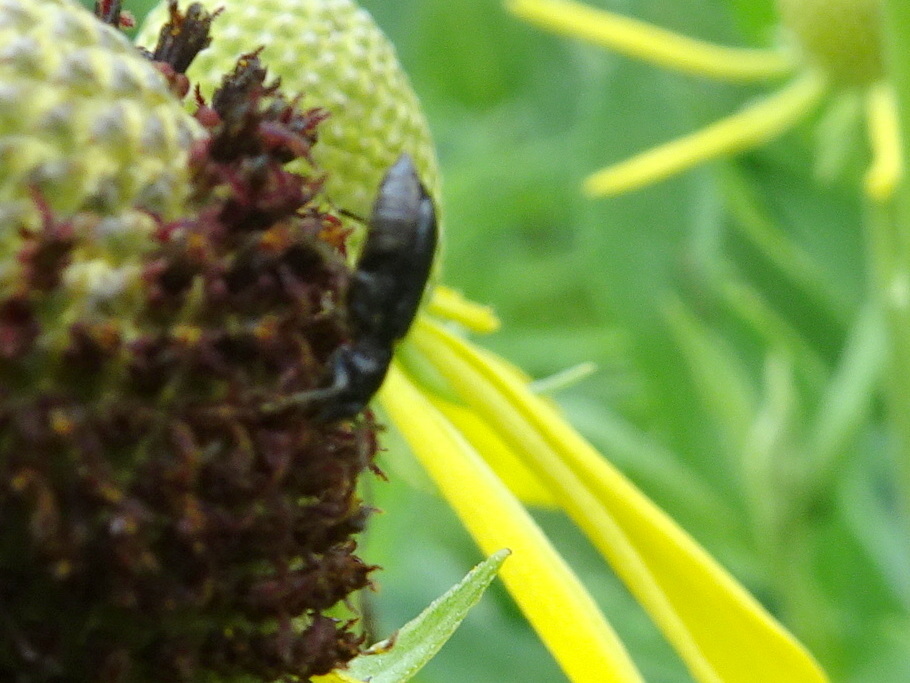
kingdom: Animalia
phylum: Arthropoda
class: Insecta
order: Coleoptera
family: Chrysomelidae
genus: Diabrotica
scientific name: Diabrotica cristata
